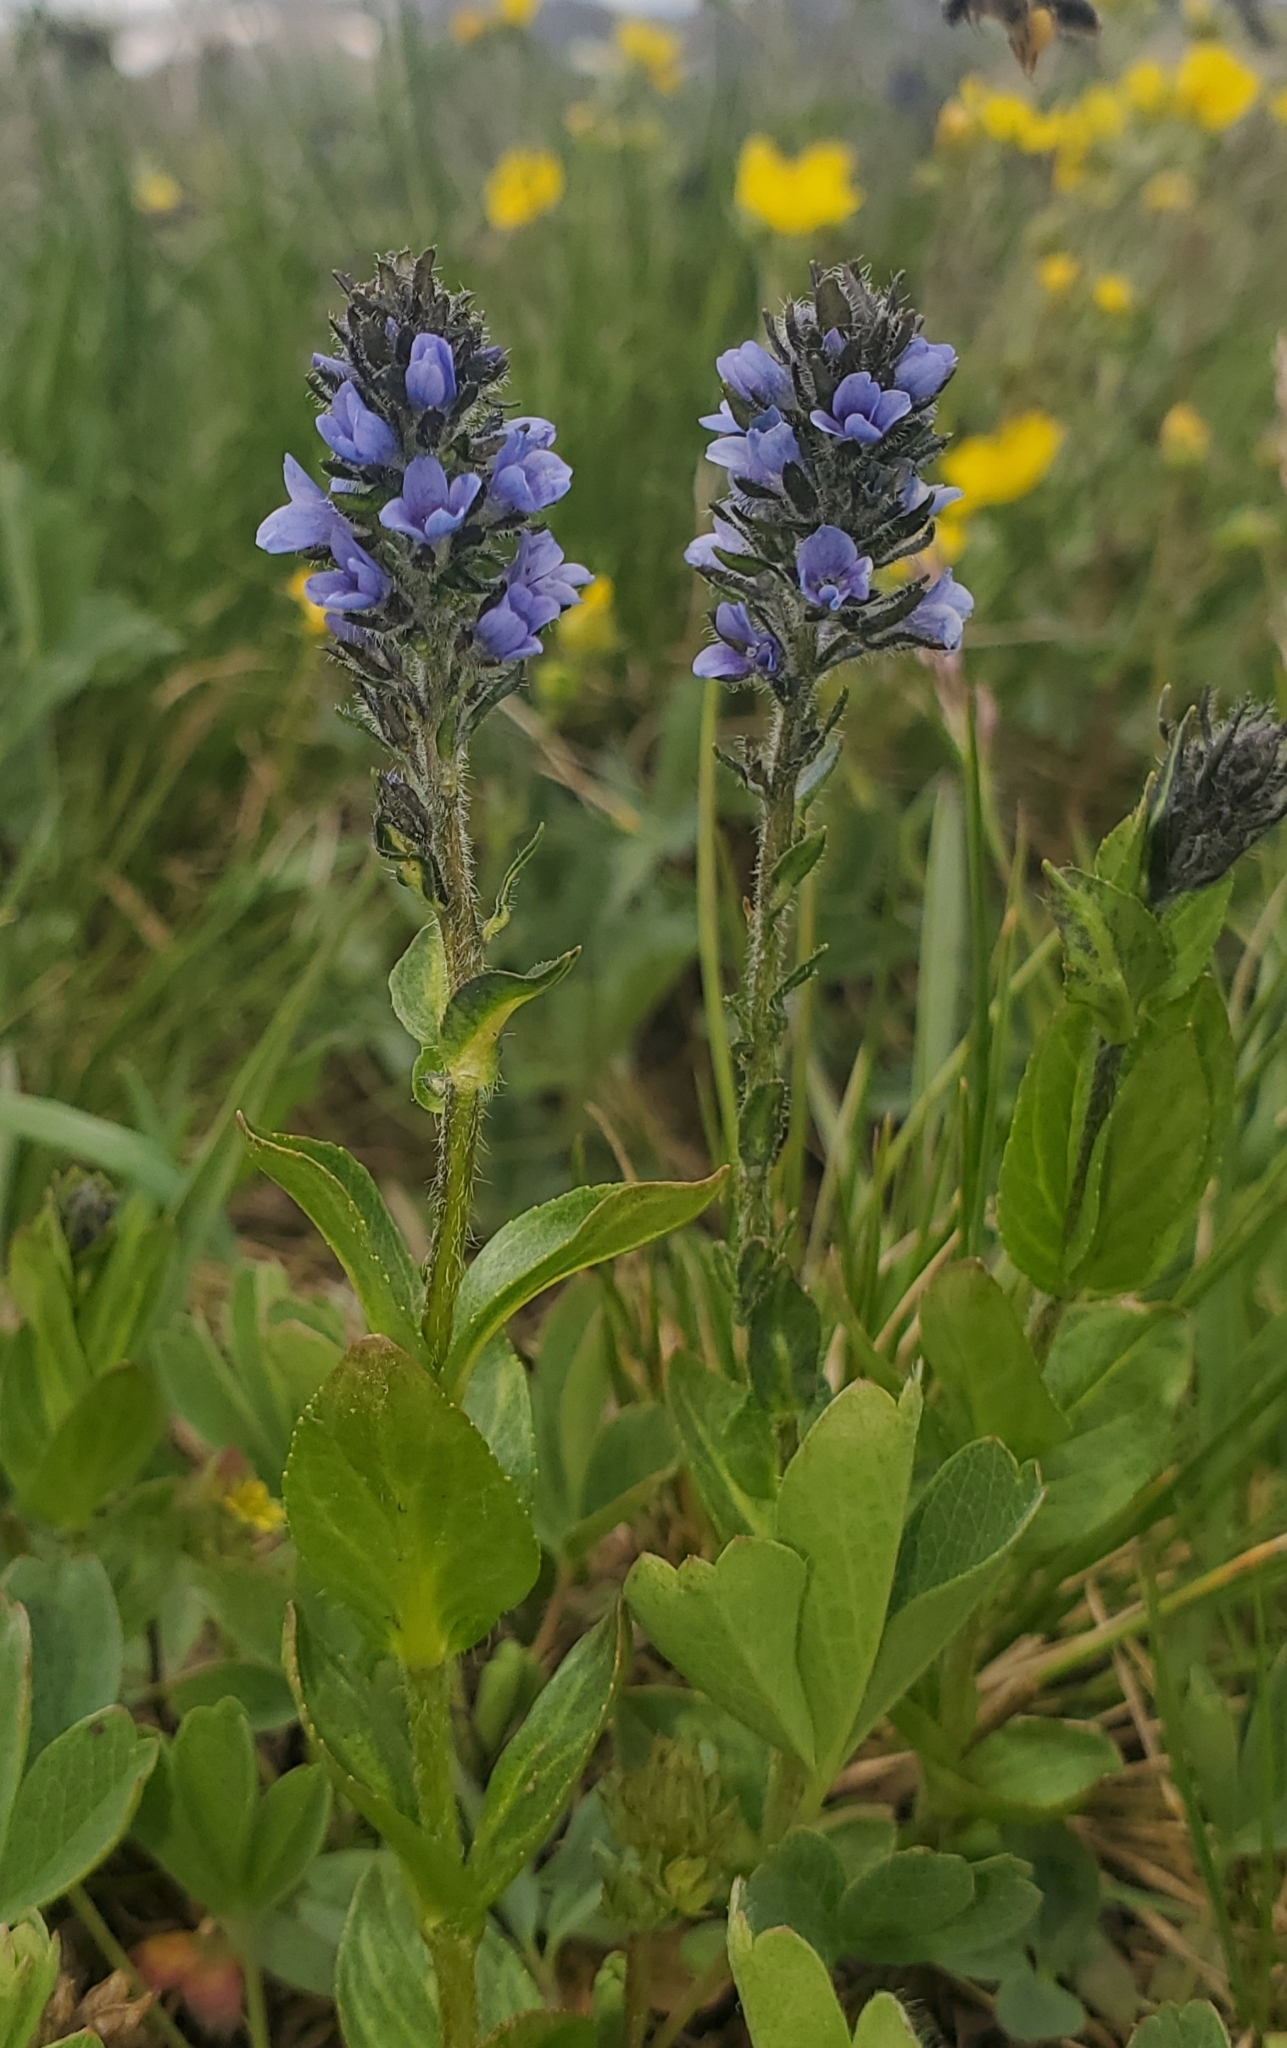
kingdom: Plantae
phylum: Tracheophyta
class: Magnoliopsida
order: Lamiales
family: Plantaginaceae
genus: Veronica
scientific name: Veronica wormskjoldii
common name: American alpine speedwell
